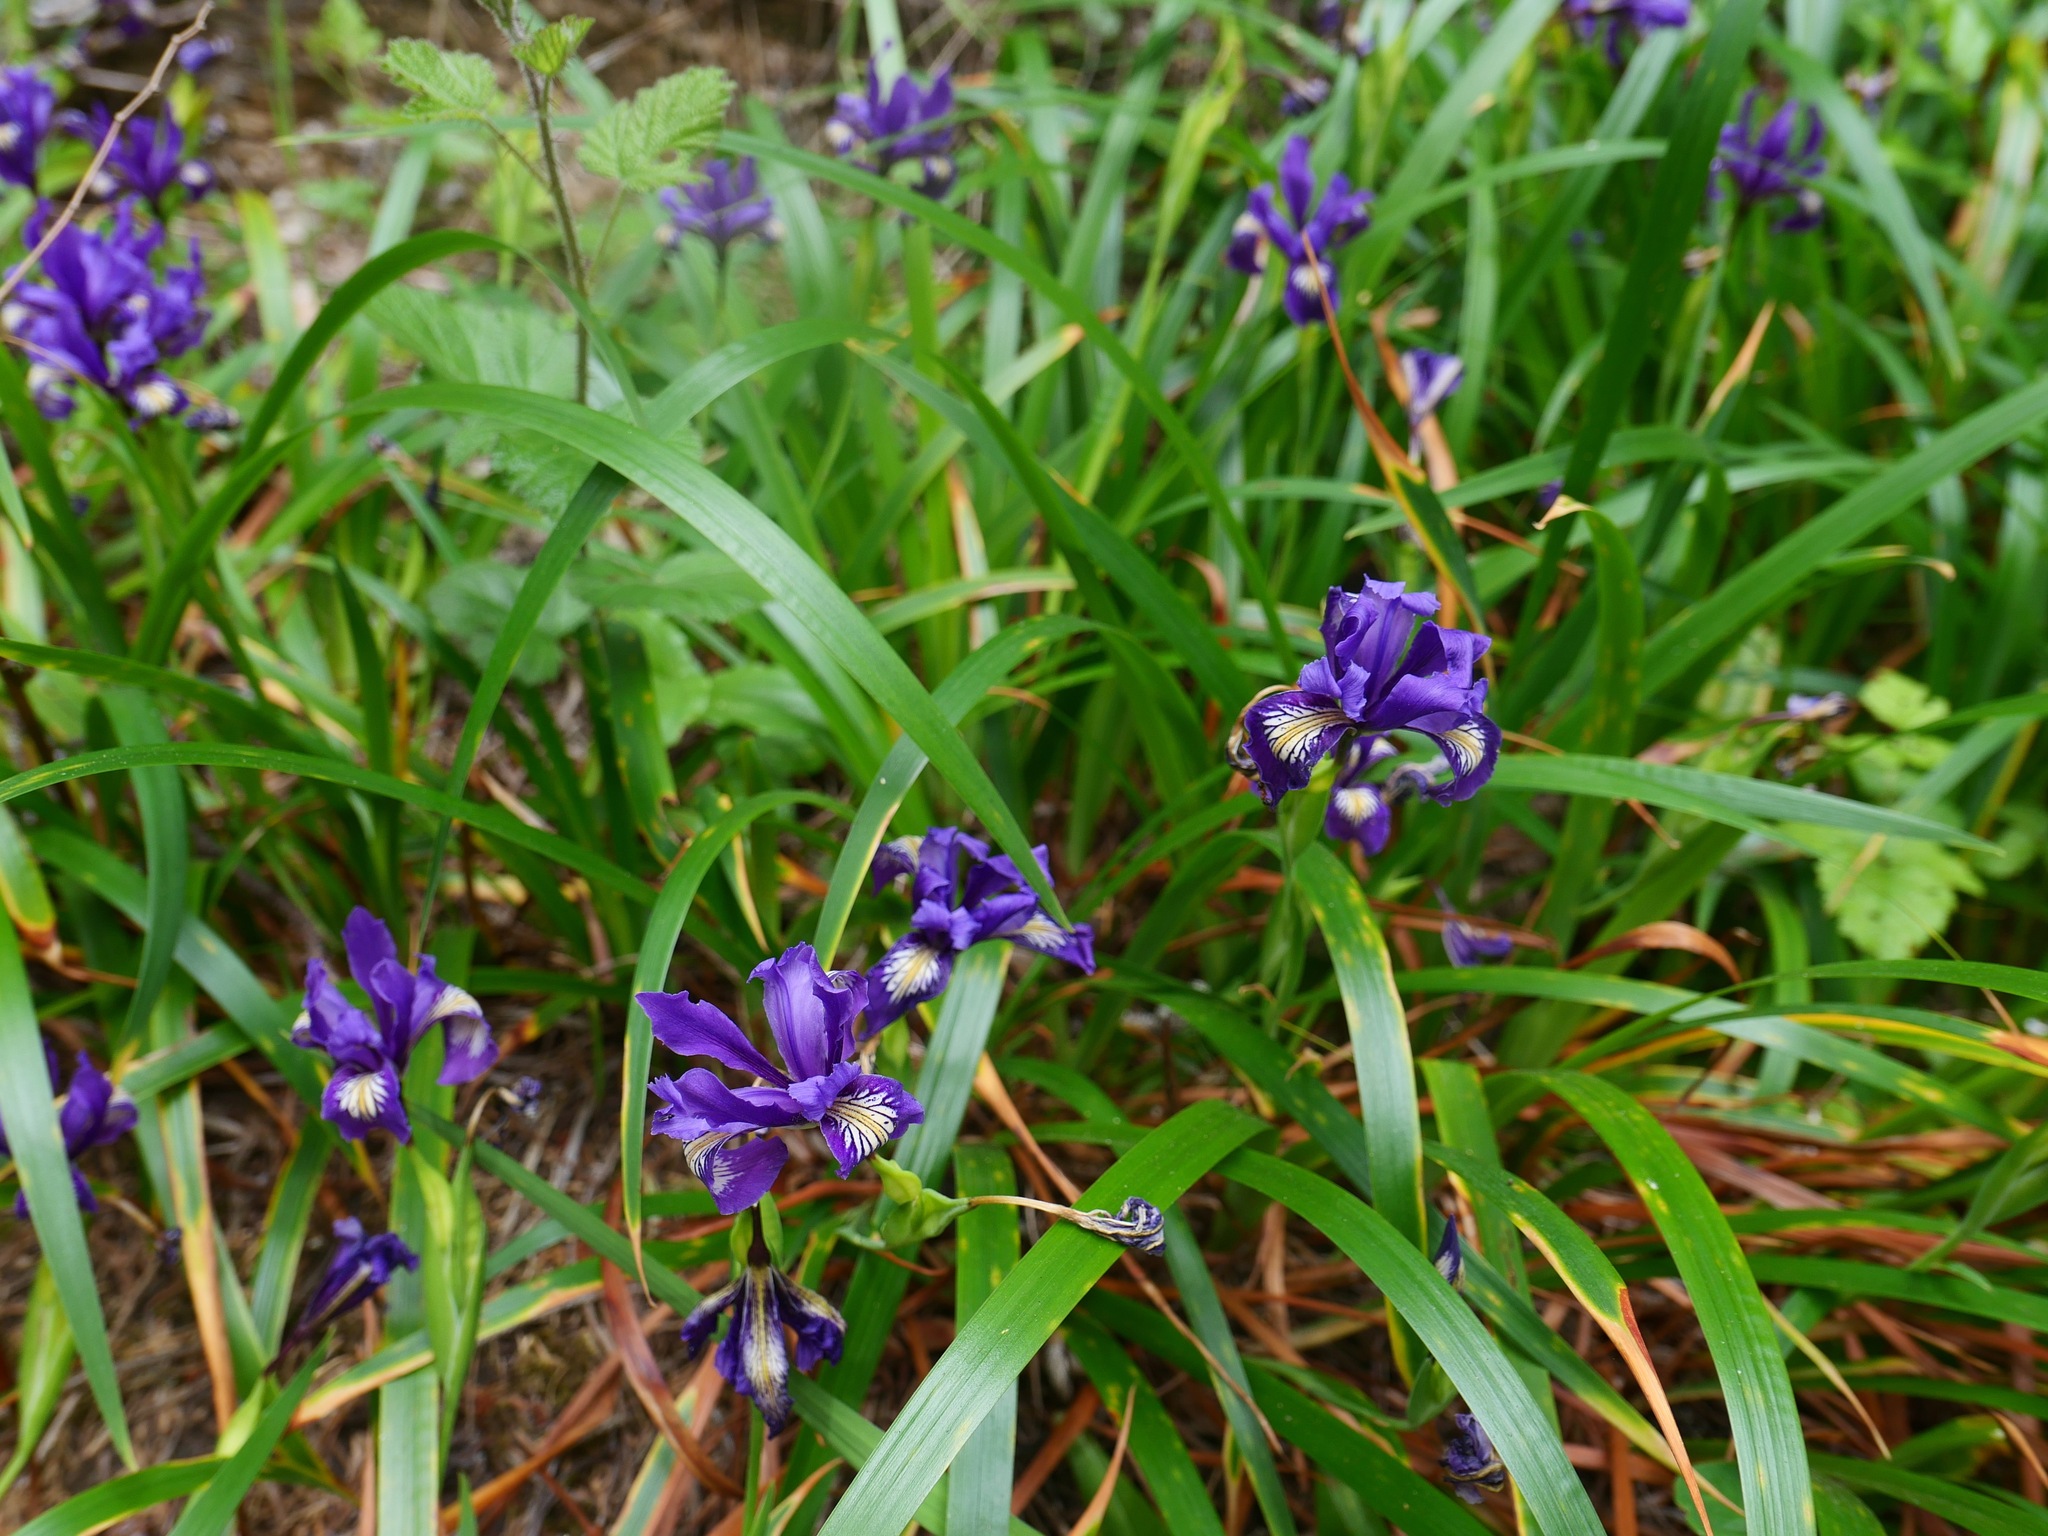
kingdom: Plantae
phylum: Tracheophyta
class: Liliopsida
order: Asparagales
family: Iridaceae
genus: Iris
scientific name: Iris douglasiana
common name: Marin iris
